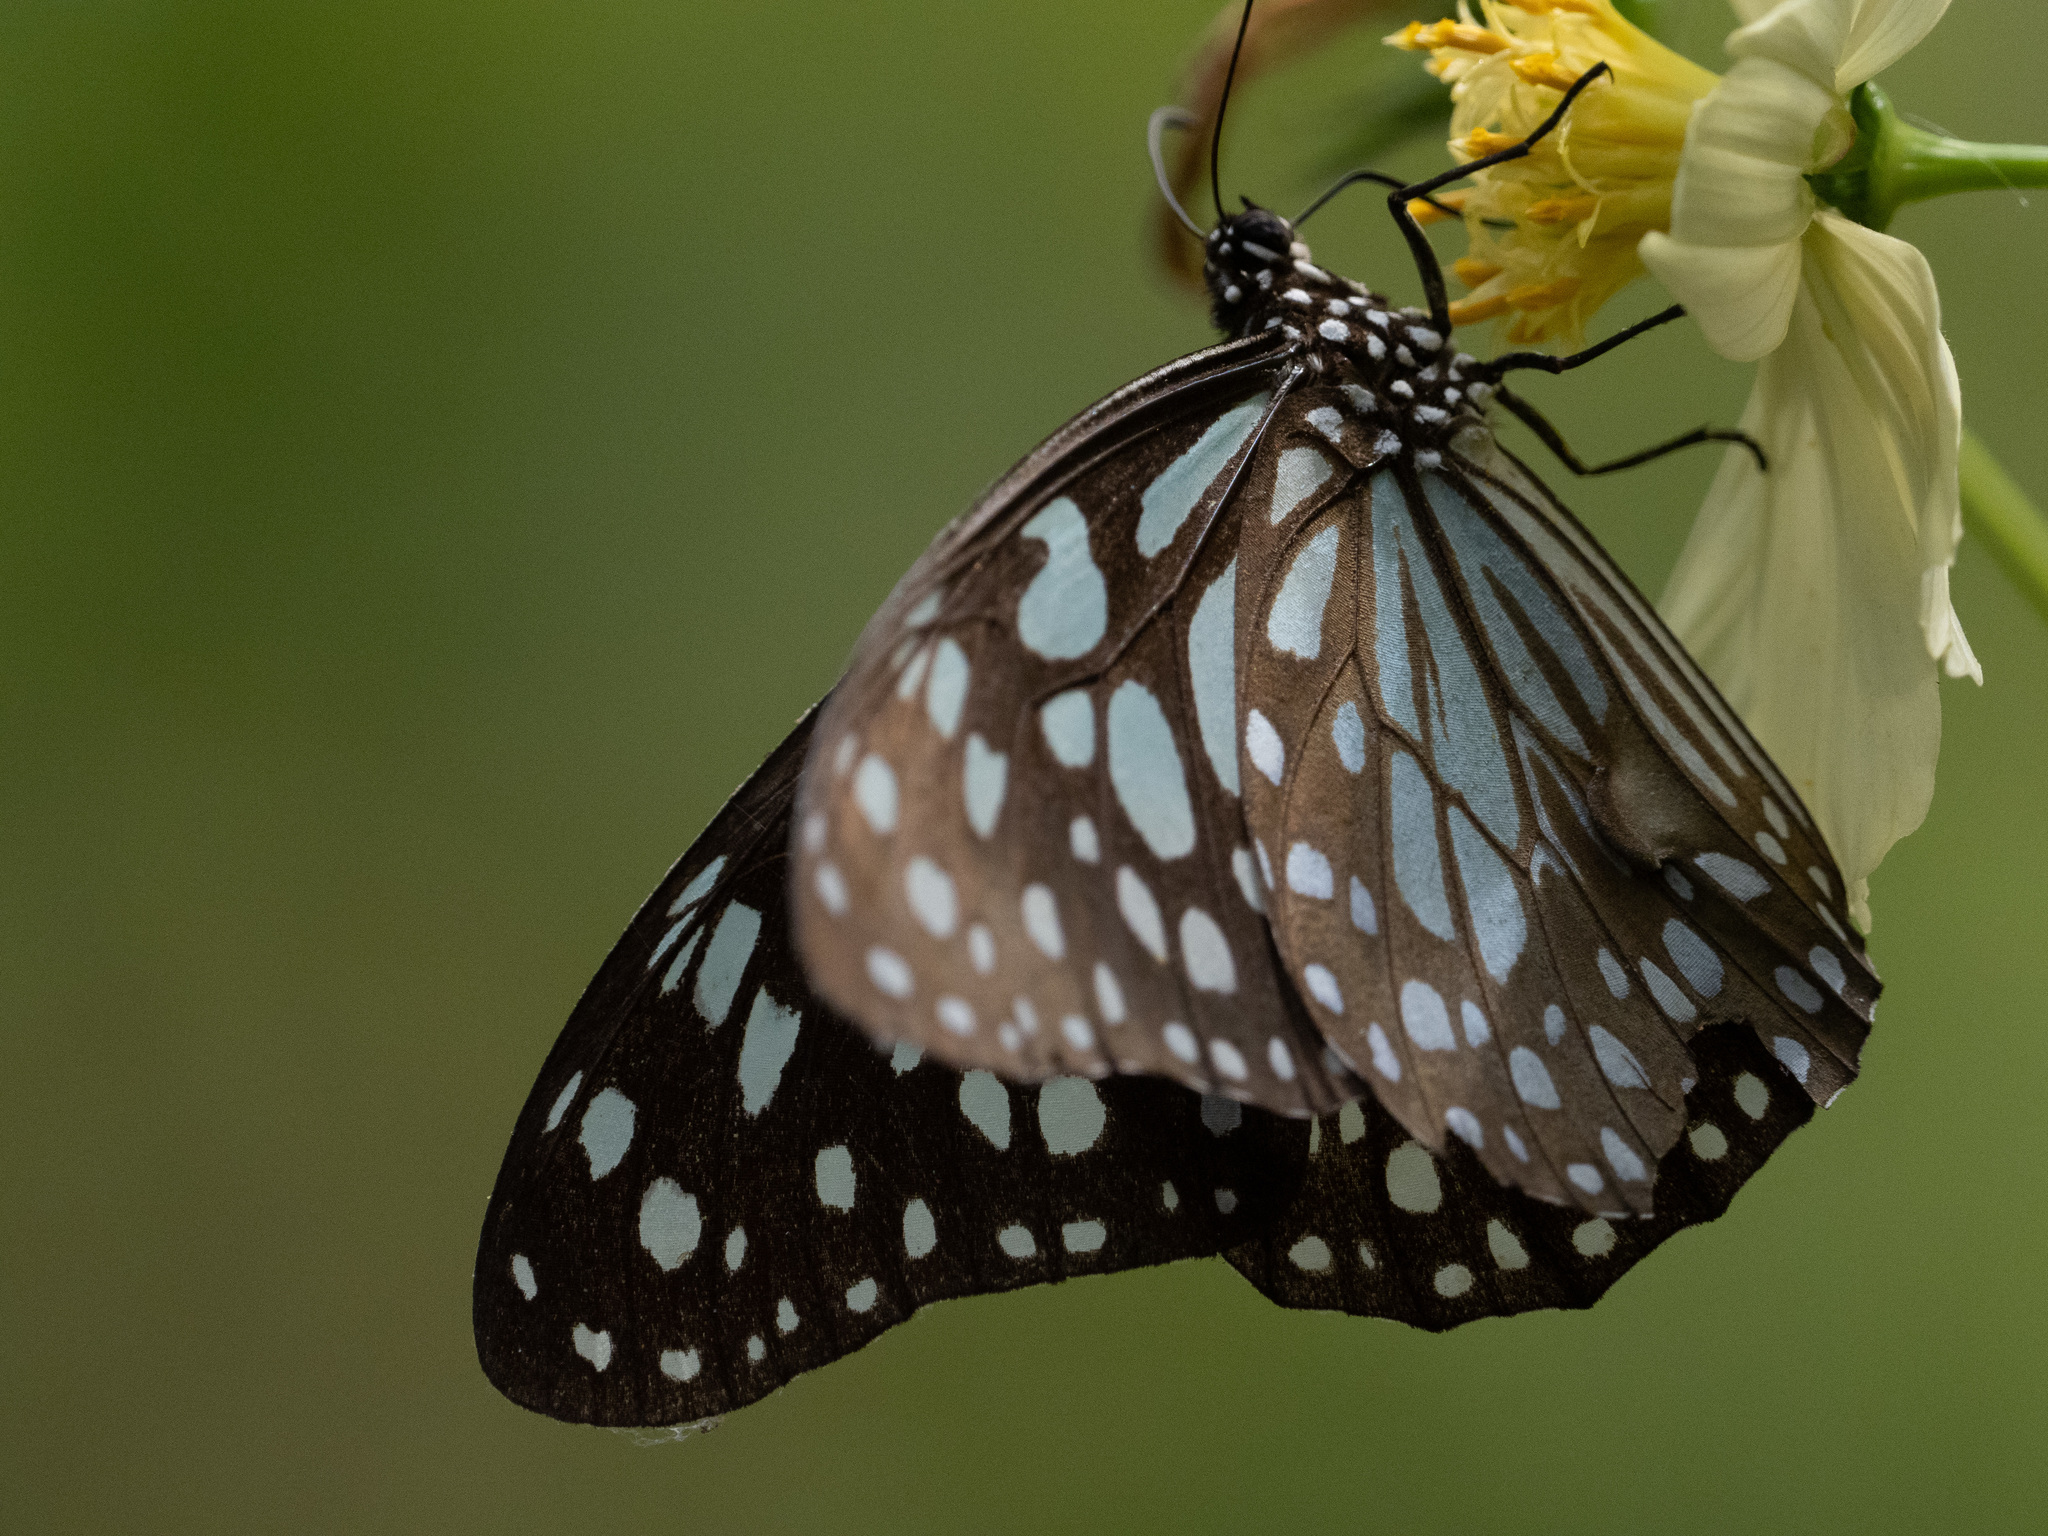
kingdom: Animalia
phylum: Arthropoda
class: Insecta
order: Lepidoptera
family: Nymphalidae
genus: Tirumala
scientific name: Tirumala limniace
